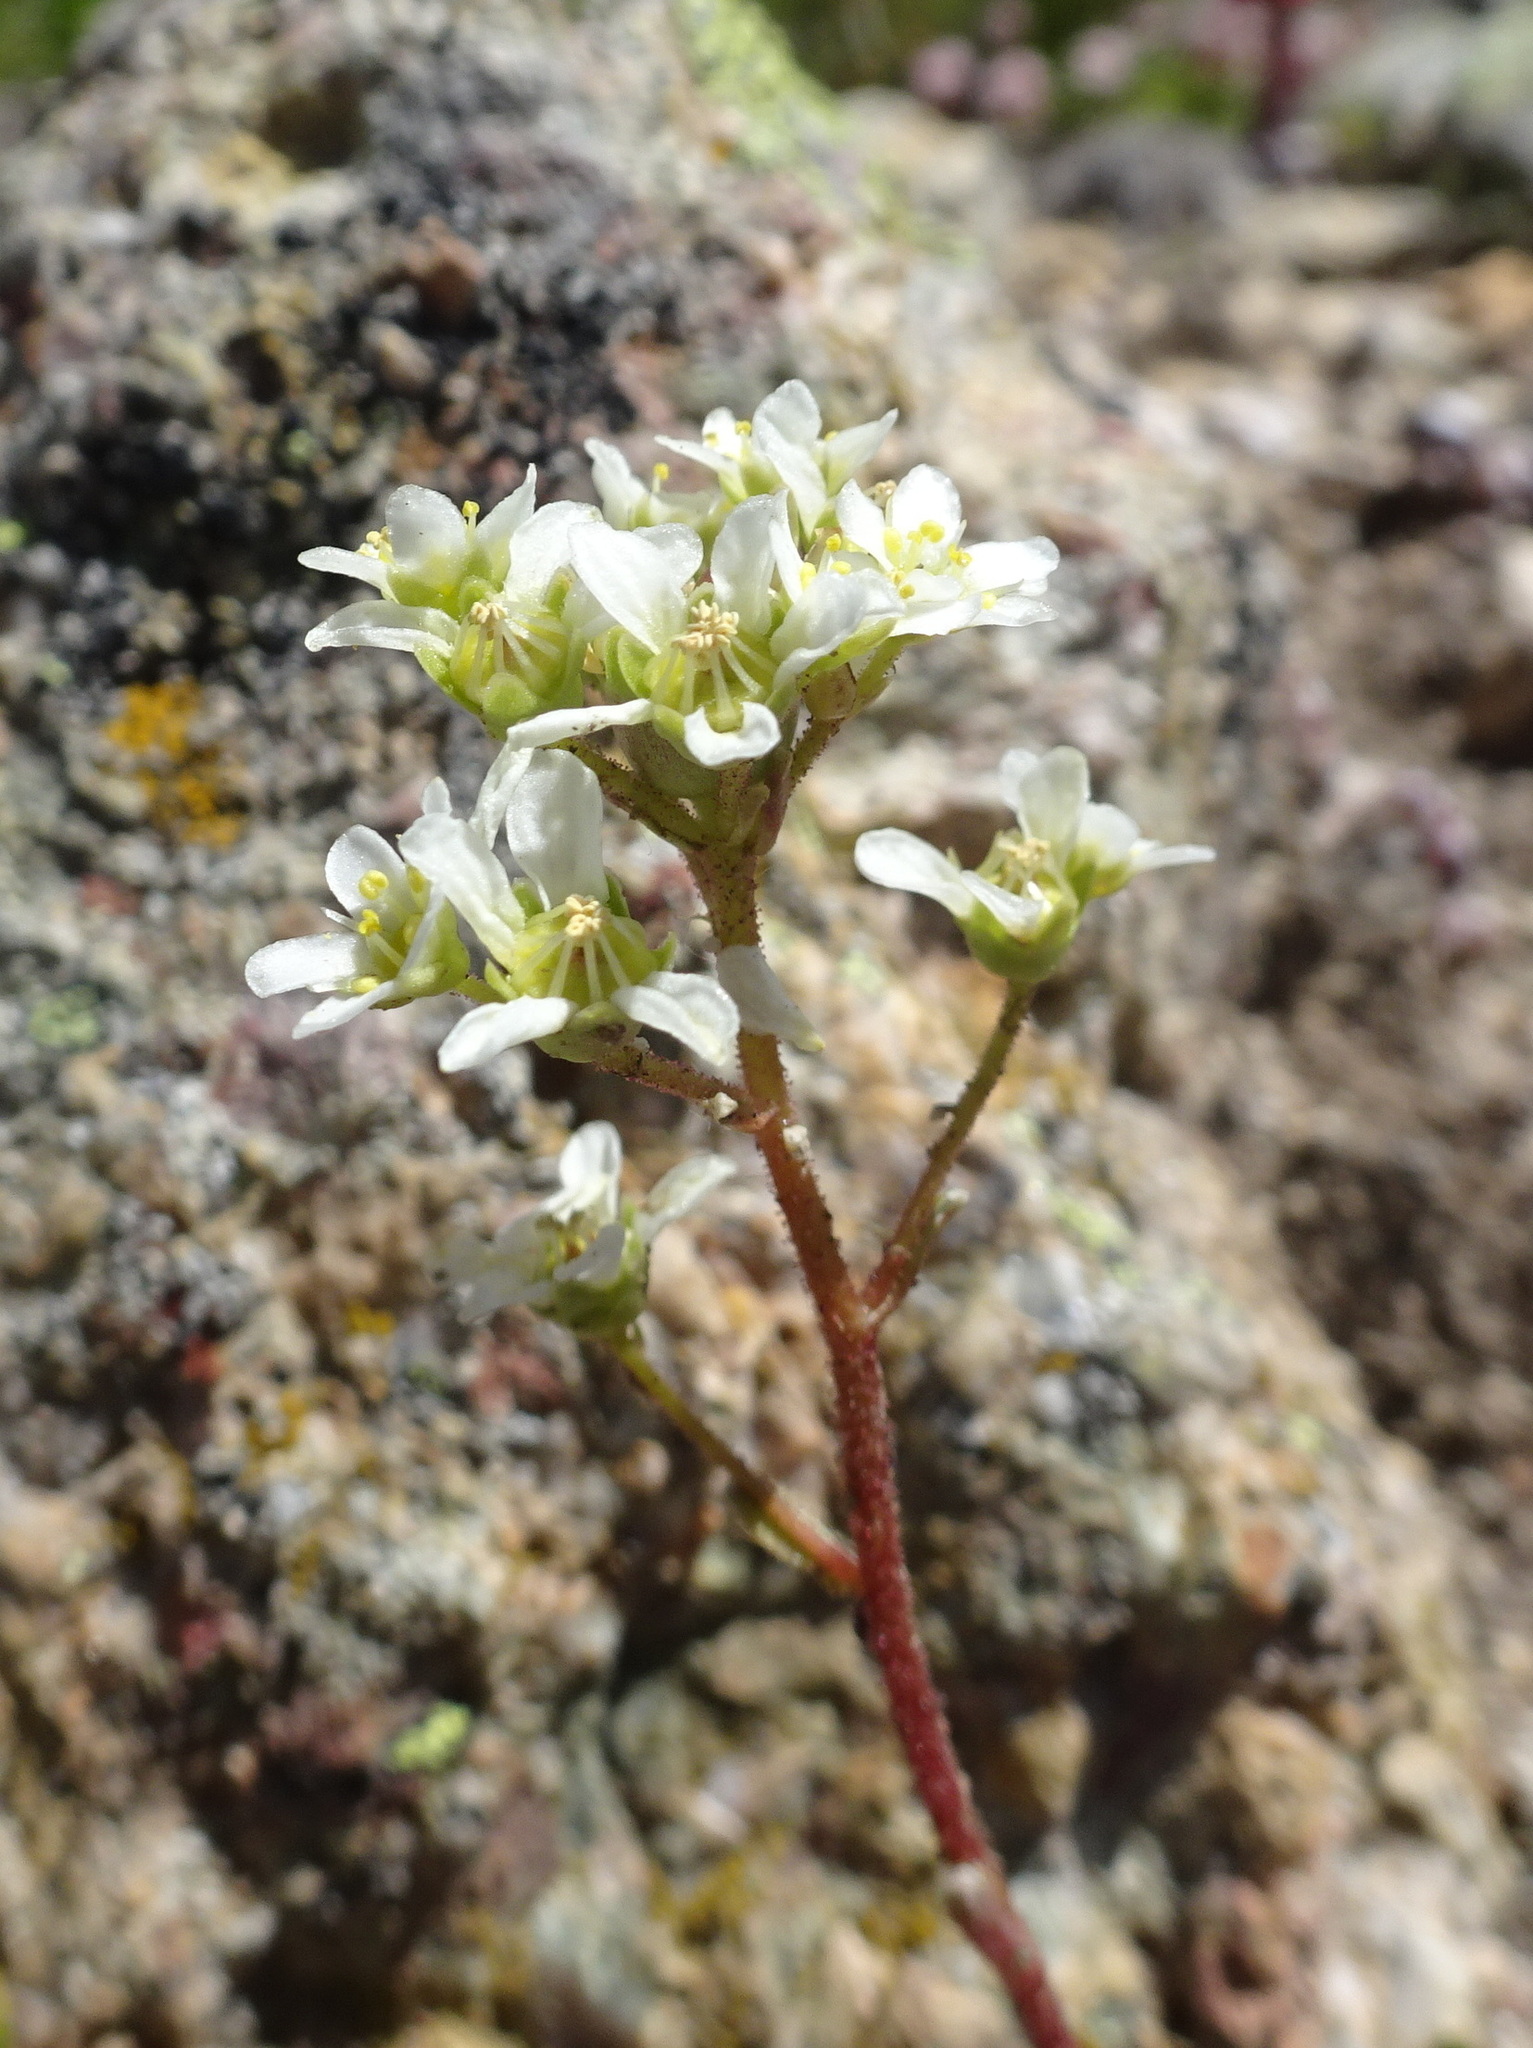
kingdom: Plantae
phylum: Tracheophyta
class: Magnoliopsida
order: Saxifragales
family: Saxifragaceae
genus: Saxifraga
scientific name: Saxifraga paniculata
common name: Livelong saxifrage
